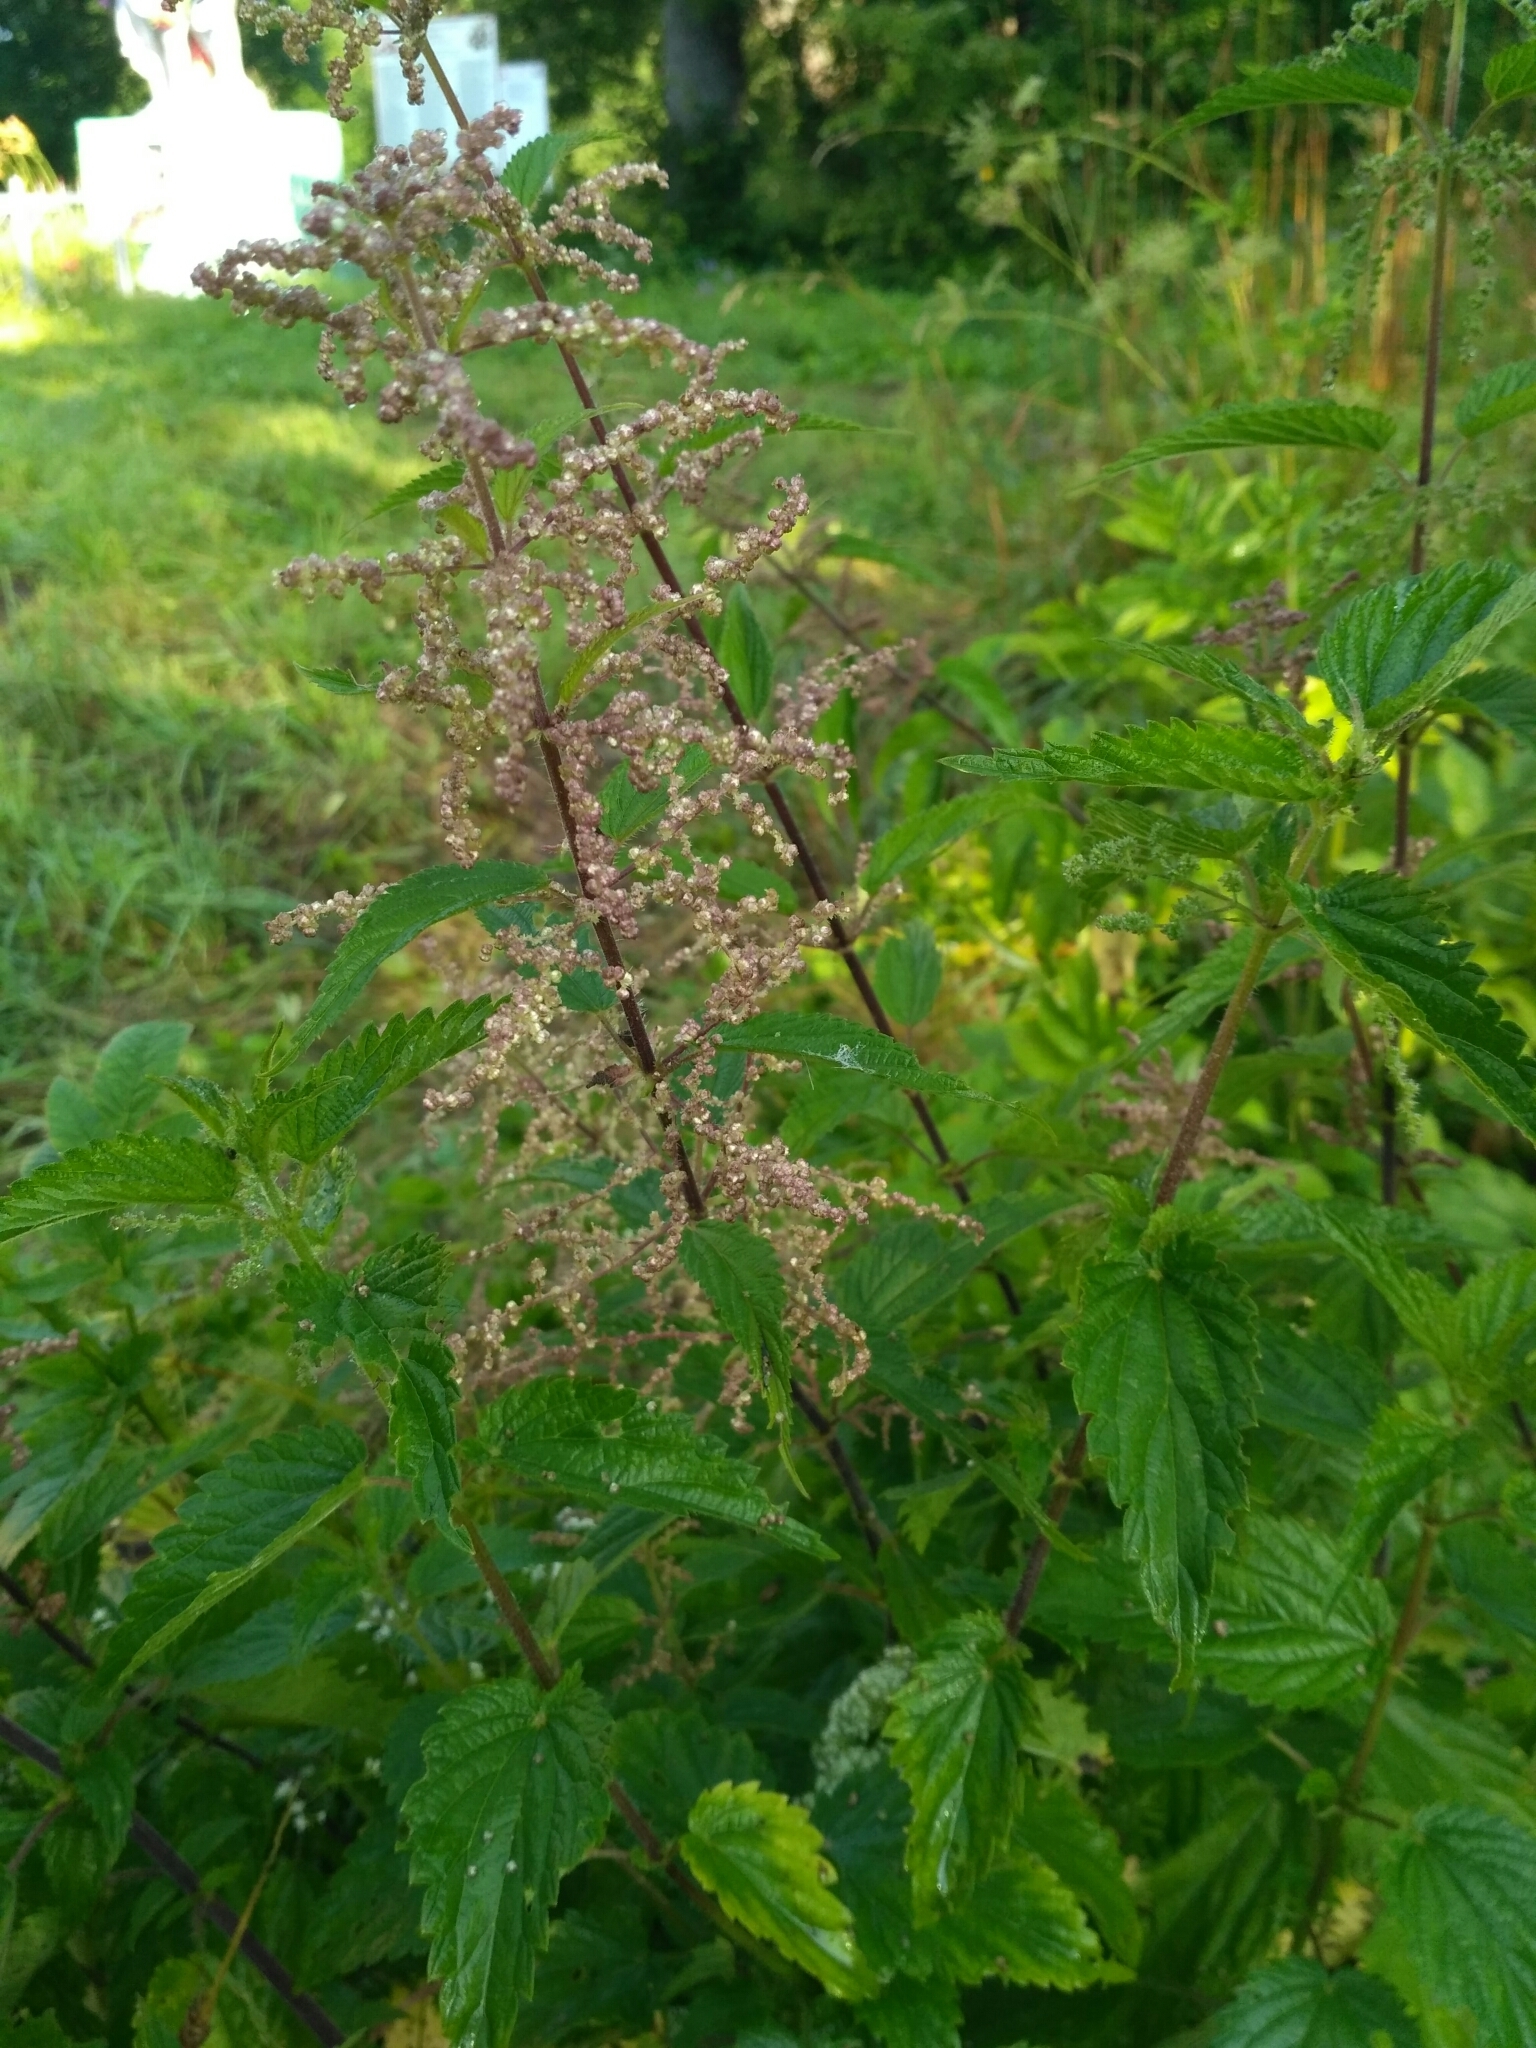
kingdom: Plantae
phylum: Tracheophyta
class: Magnoliopsida
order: Rosales
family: Urticaceae
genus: Urtica
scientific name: Urtica dioica
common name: Common nettle
